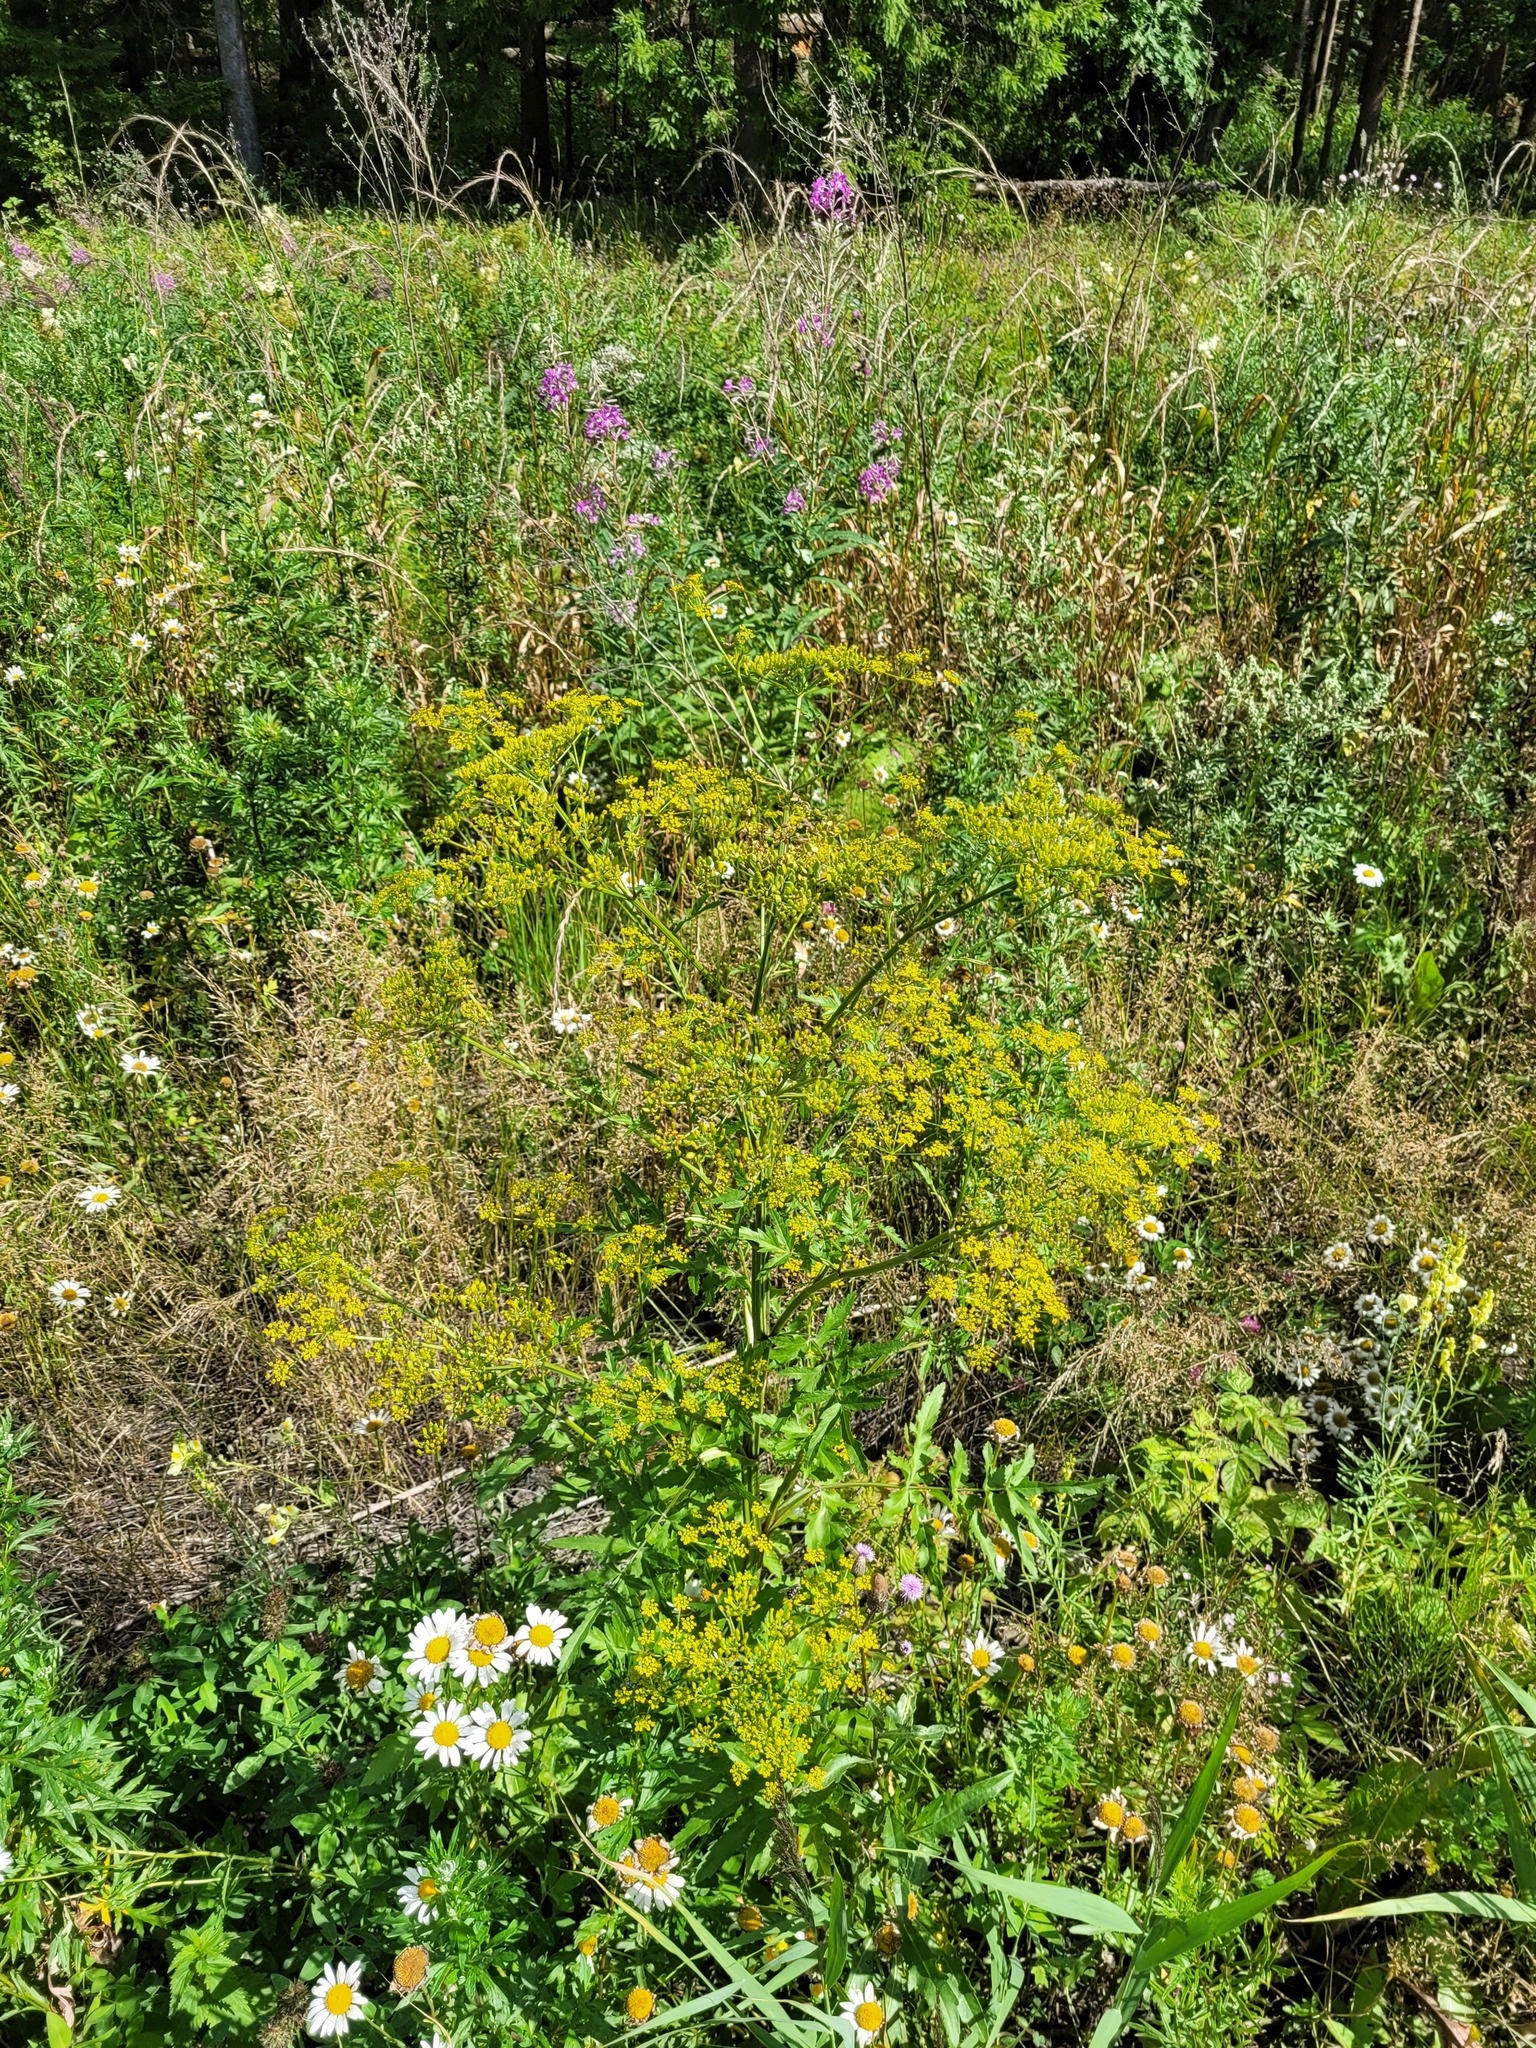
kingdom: Plantae
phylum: Tracheophyta
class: Magnoliopsida
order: Apiales
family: Apiaceae
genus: Pastinaca
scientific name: Pastinaca sativa
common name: Wild parsnip
